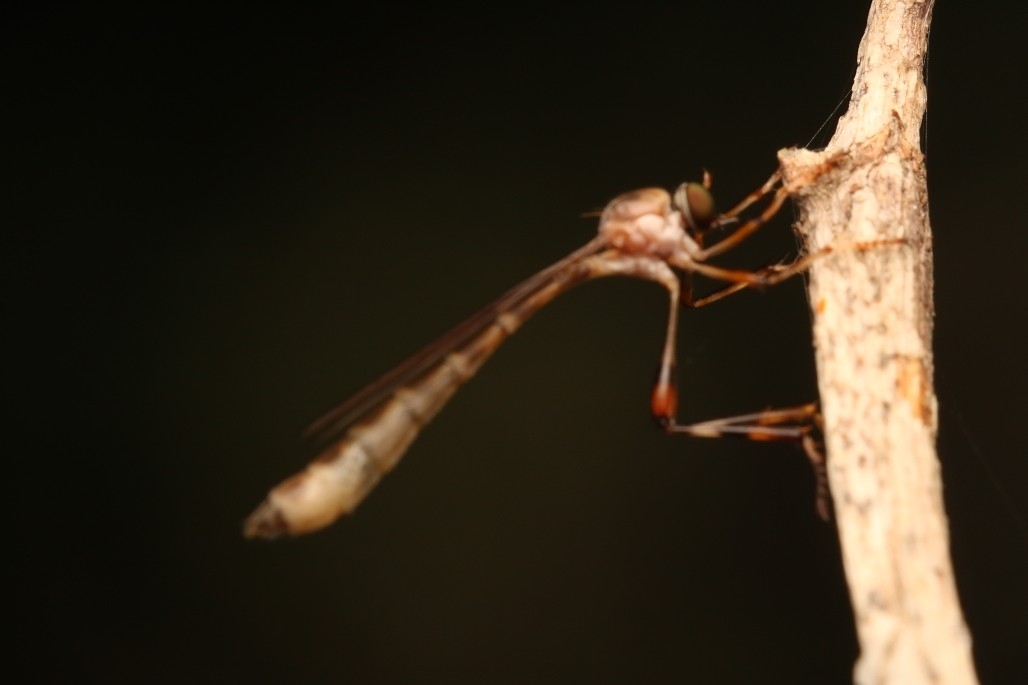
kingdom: Animalia
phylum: Arthropoda
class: Insecta
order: Diptera
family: Asilidae
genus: Psilonyx
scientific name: Psilonyx annulatus
